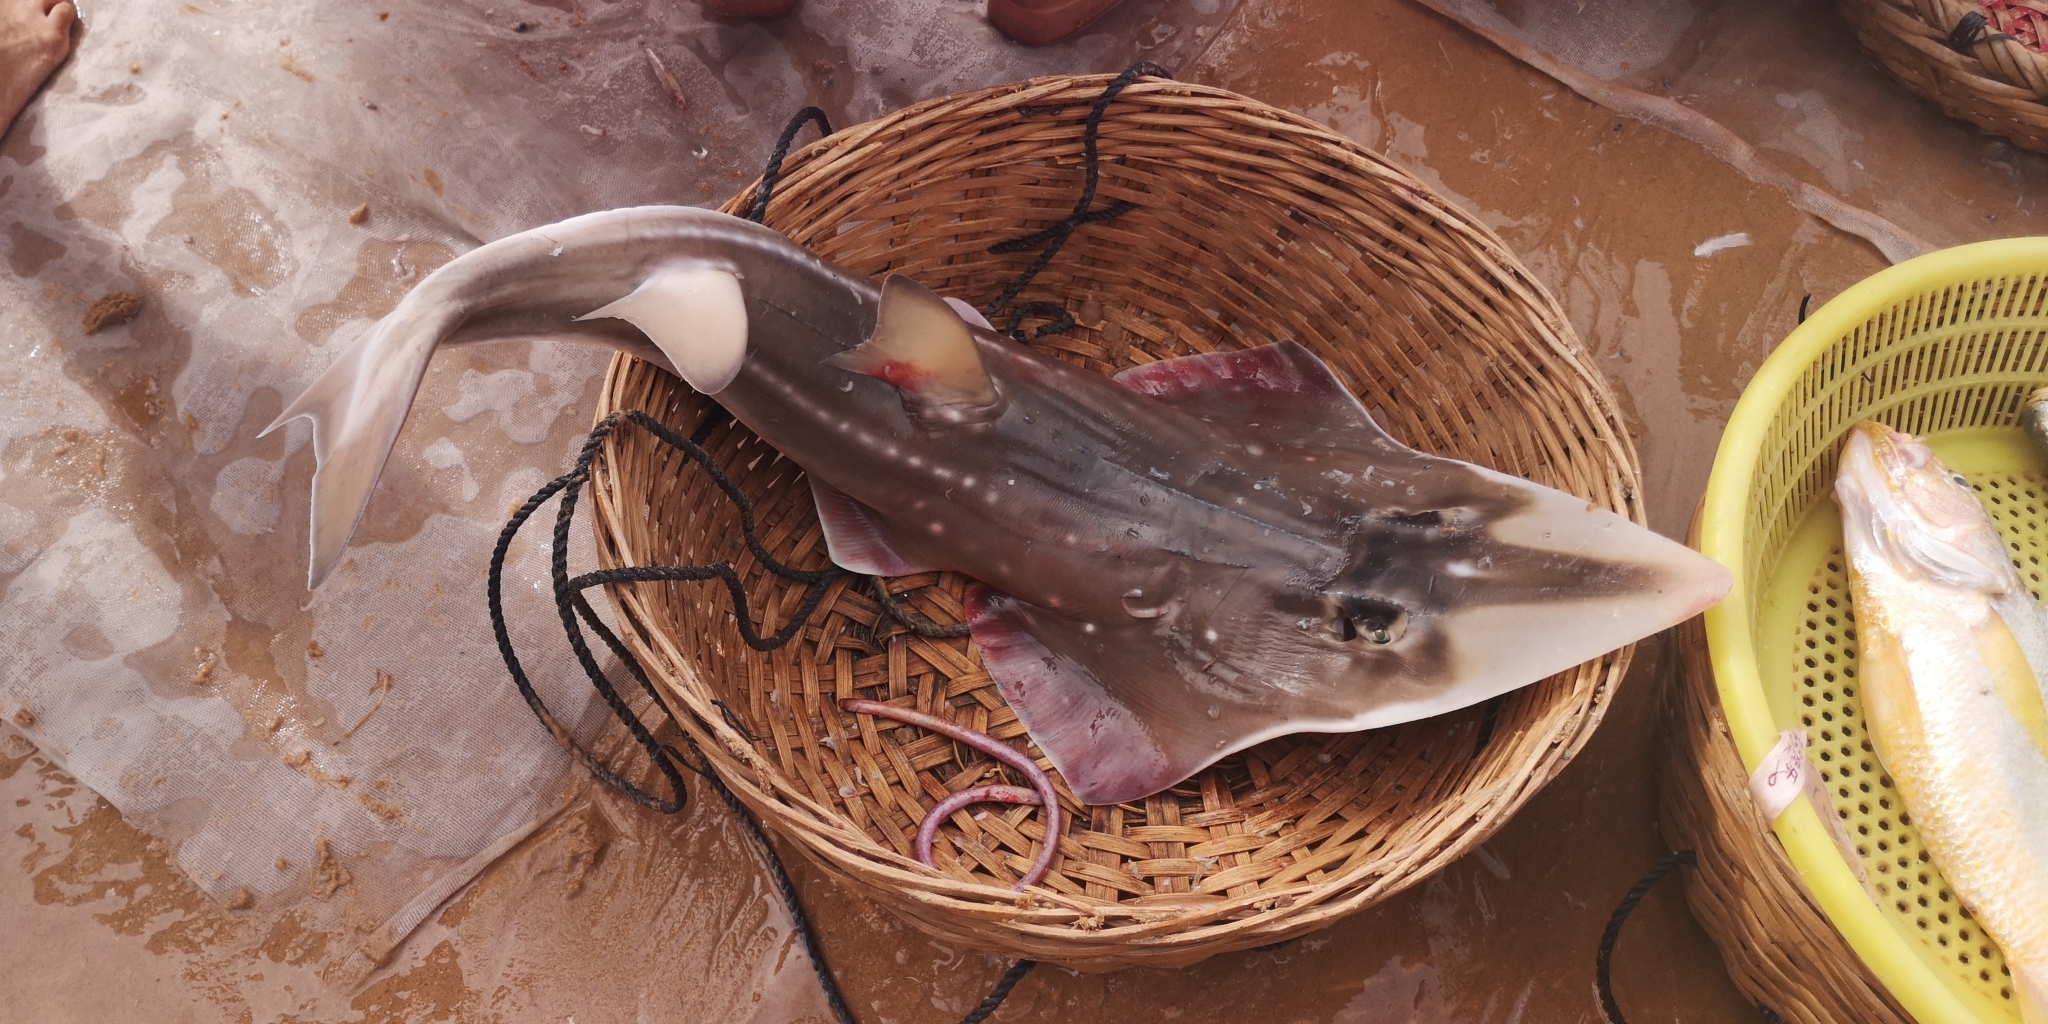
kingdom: Animalia
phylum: Chordata
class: Elasmobranchii
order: Rhinopristiformes
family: Rhinidae
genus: Rhynchobatus
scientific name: Rhynchobatus immaculatus
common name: Taiwanese wedgefish
